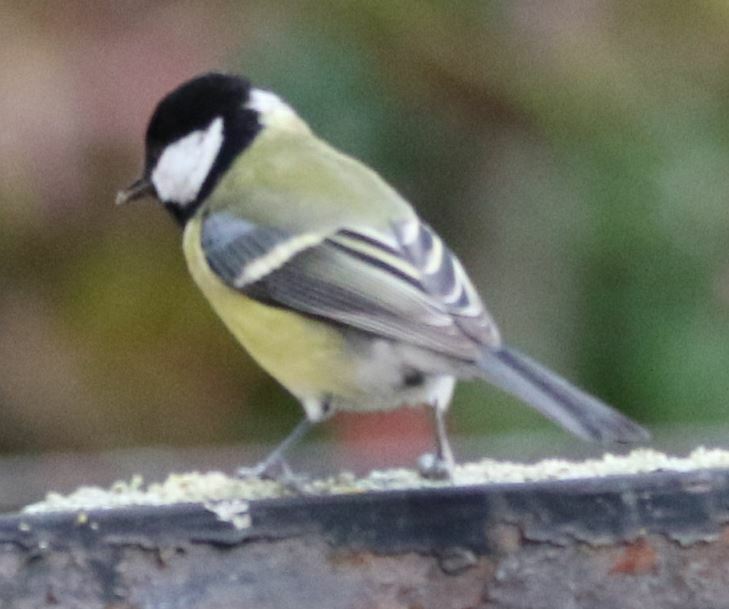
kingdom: Animalia
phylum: Chordata
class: Aves
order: Passeriformes
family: Paridae
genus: Parus
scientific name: Parus major
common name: Great tit
